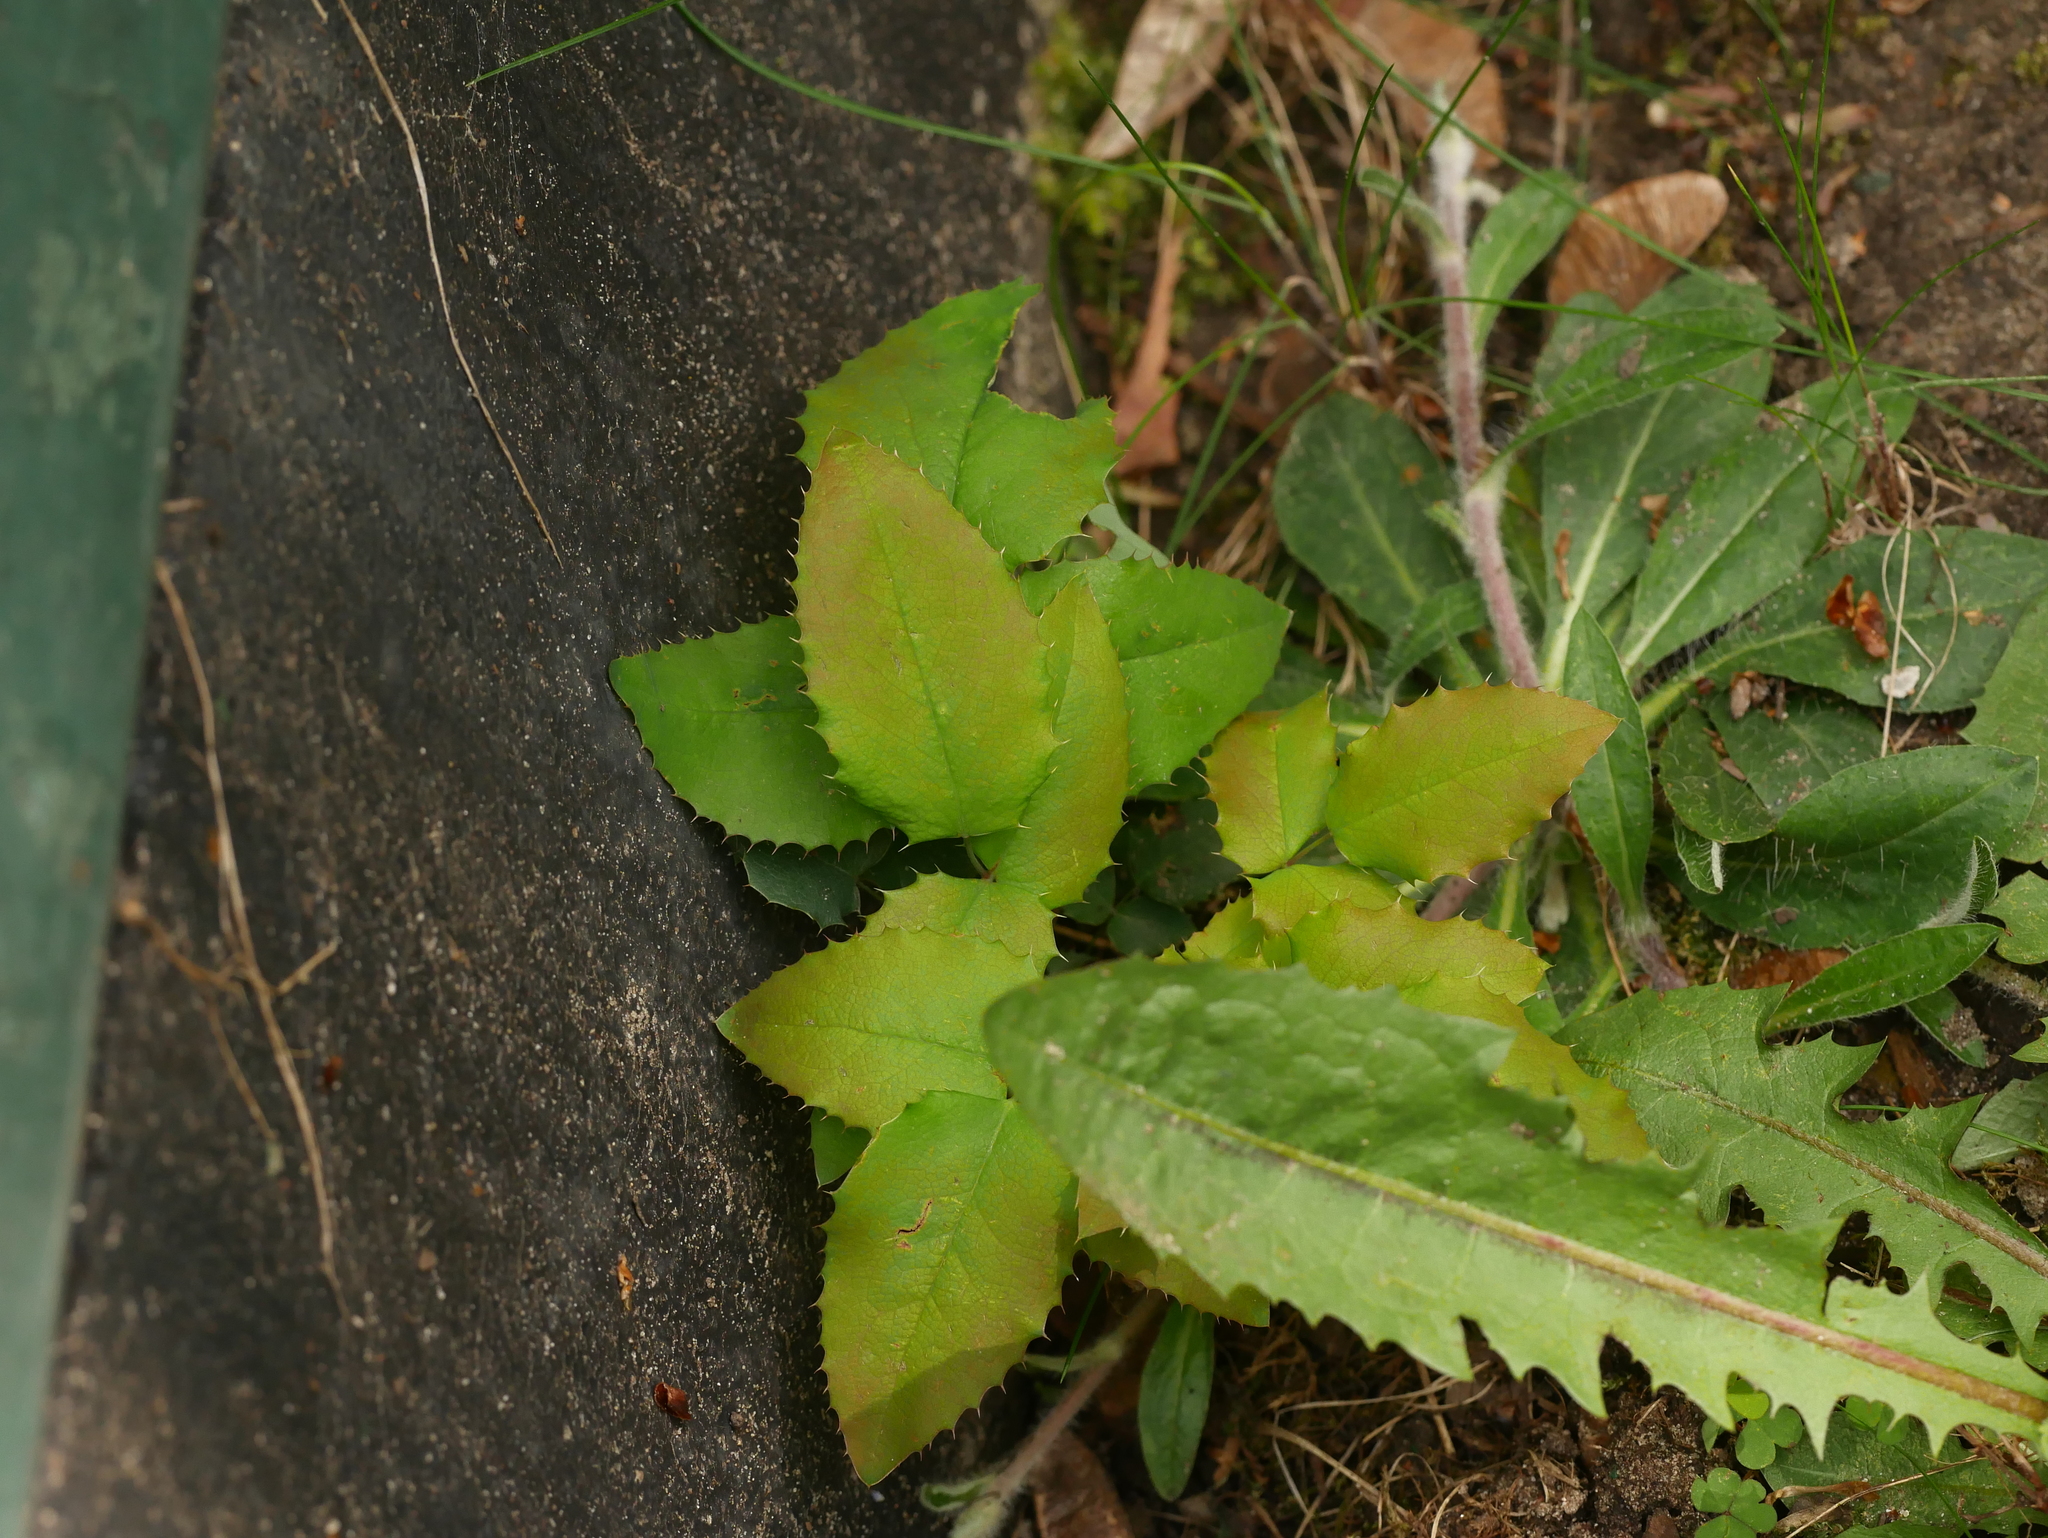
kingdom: Plantae
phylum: Tracheophyta
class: Magnoliopsida
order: Ranunculales
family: Berberidaceae
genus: Mahonia
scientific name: Mahonia aquifolium
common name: Oregon-grape
